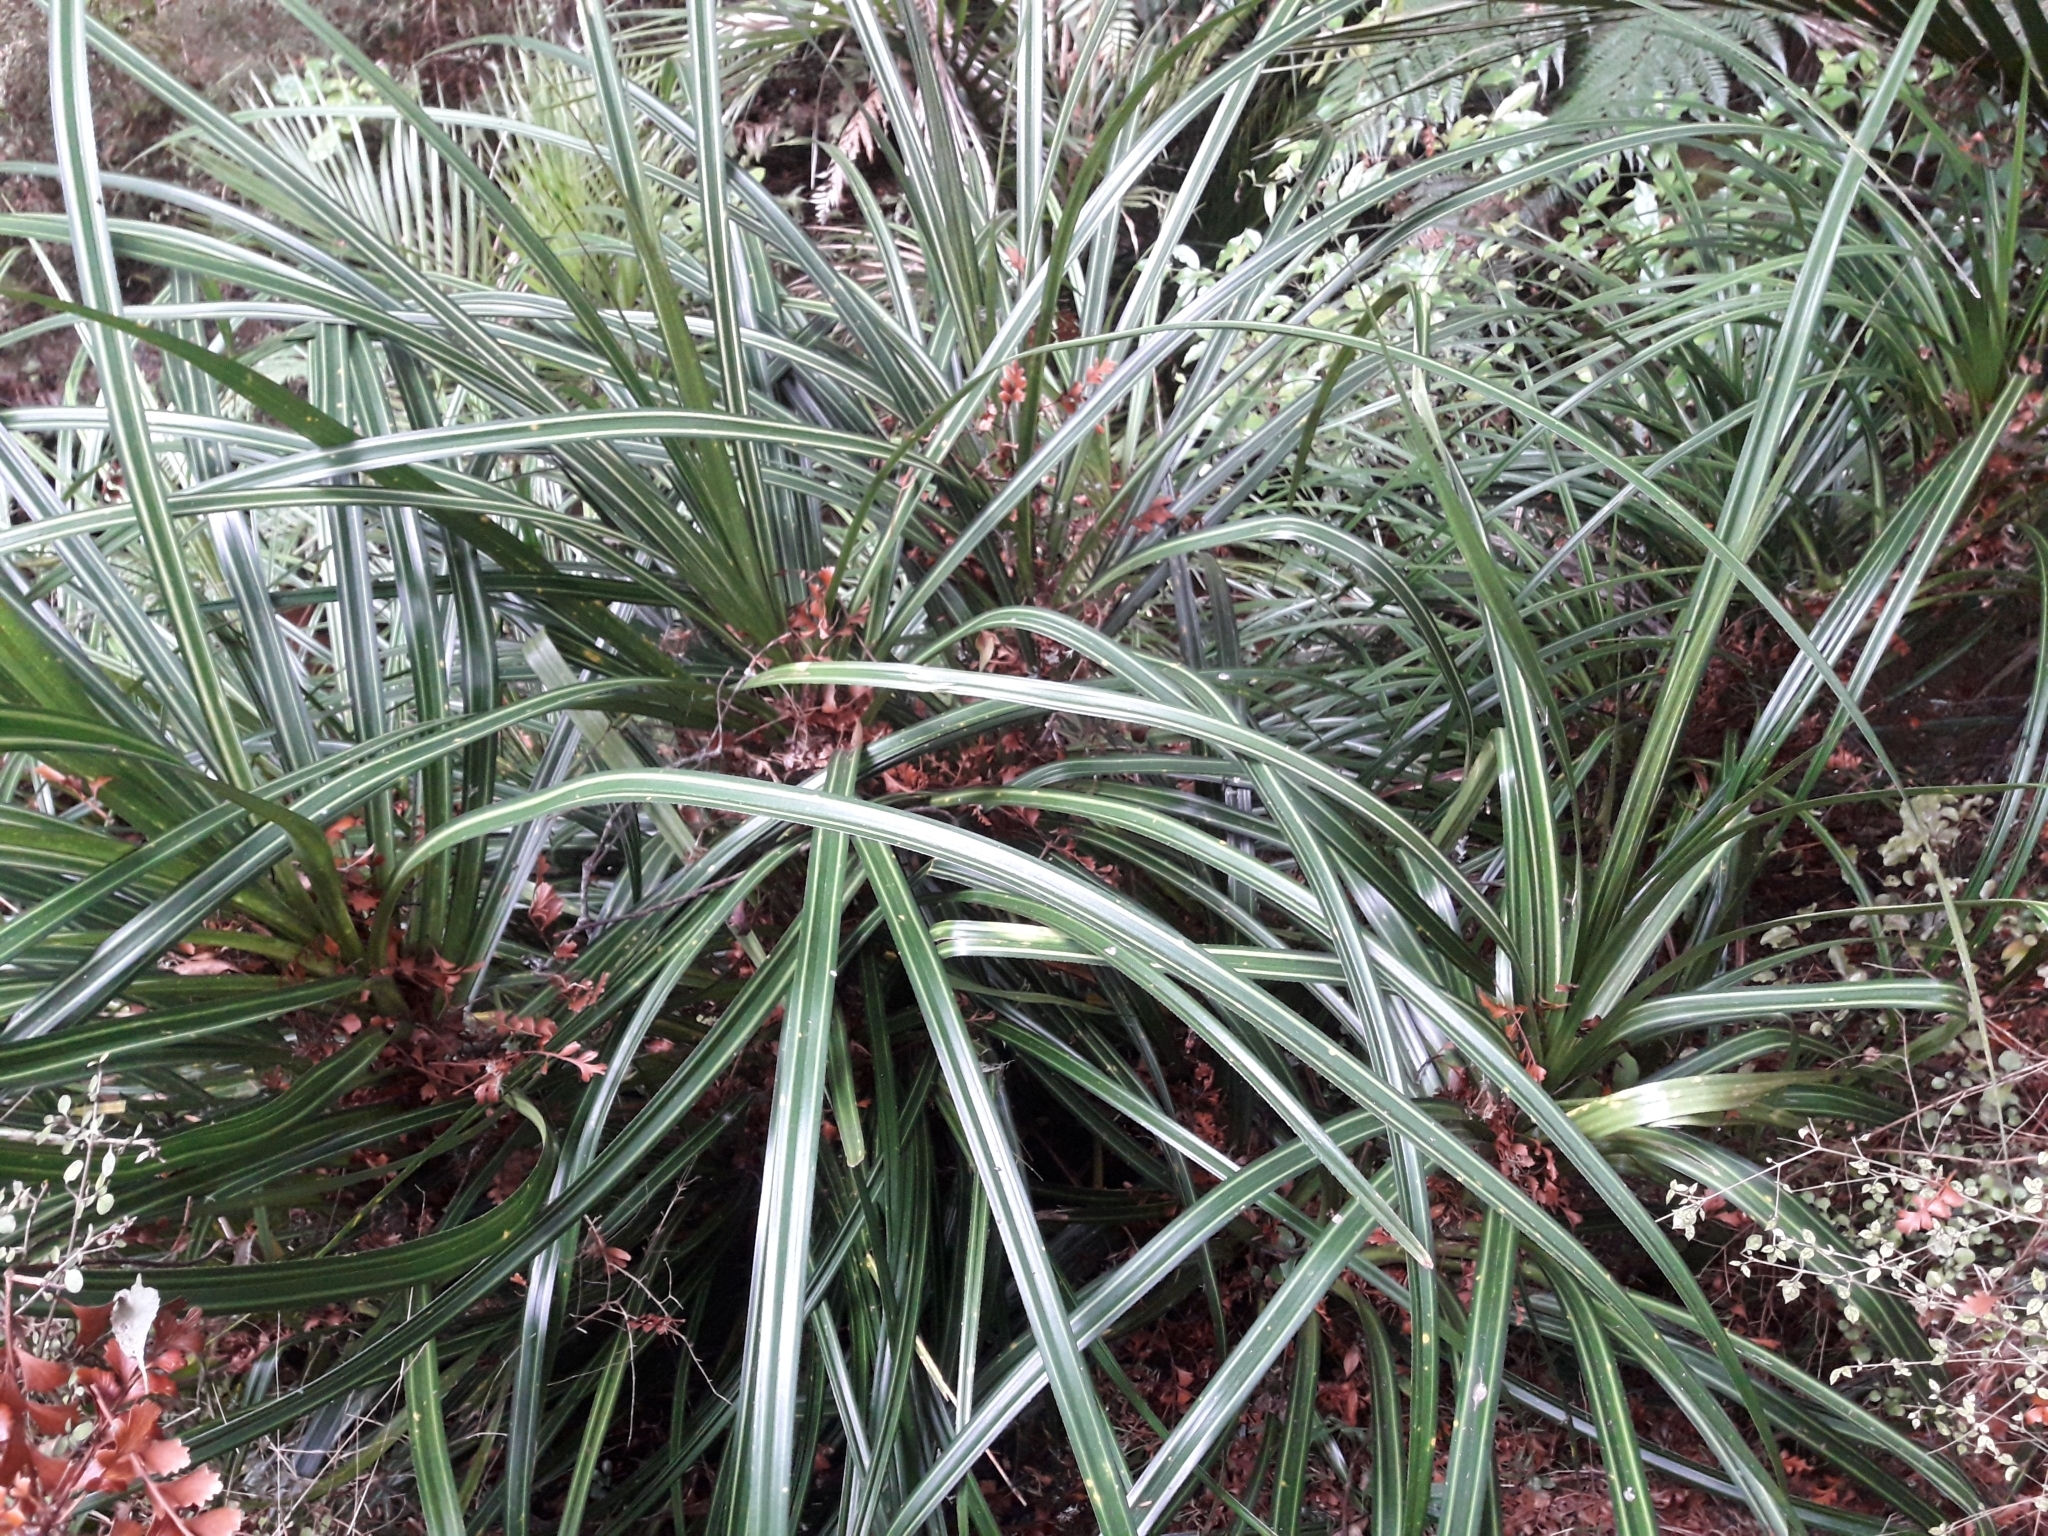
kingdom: Plantae
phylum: Tracheophyta
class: Liliopsida
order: Pandanales
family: Pandanaceae
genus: Freycinetia
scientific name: Freycinetia banksii
